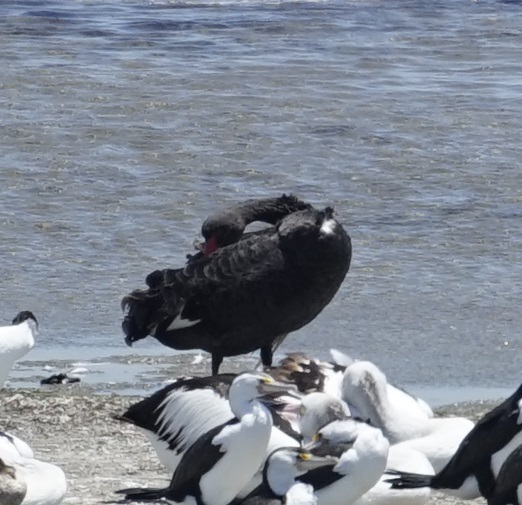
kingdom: Animalia
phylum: Chordata
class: Aves
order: Anseriformes
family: Anatidae
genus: Cygnus
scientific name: Cygnus atratus
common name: Black swan
